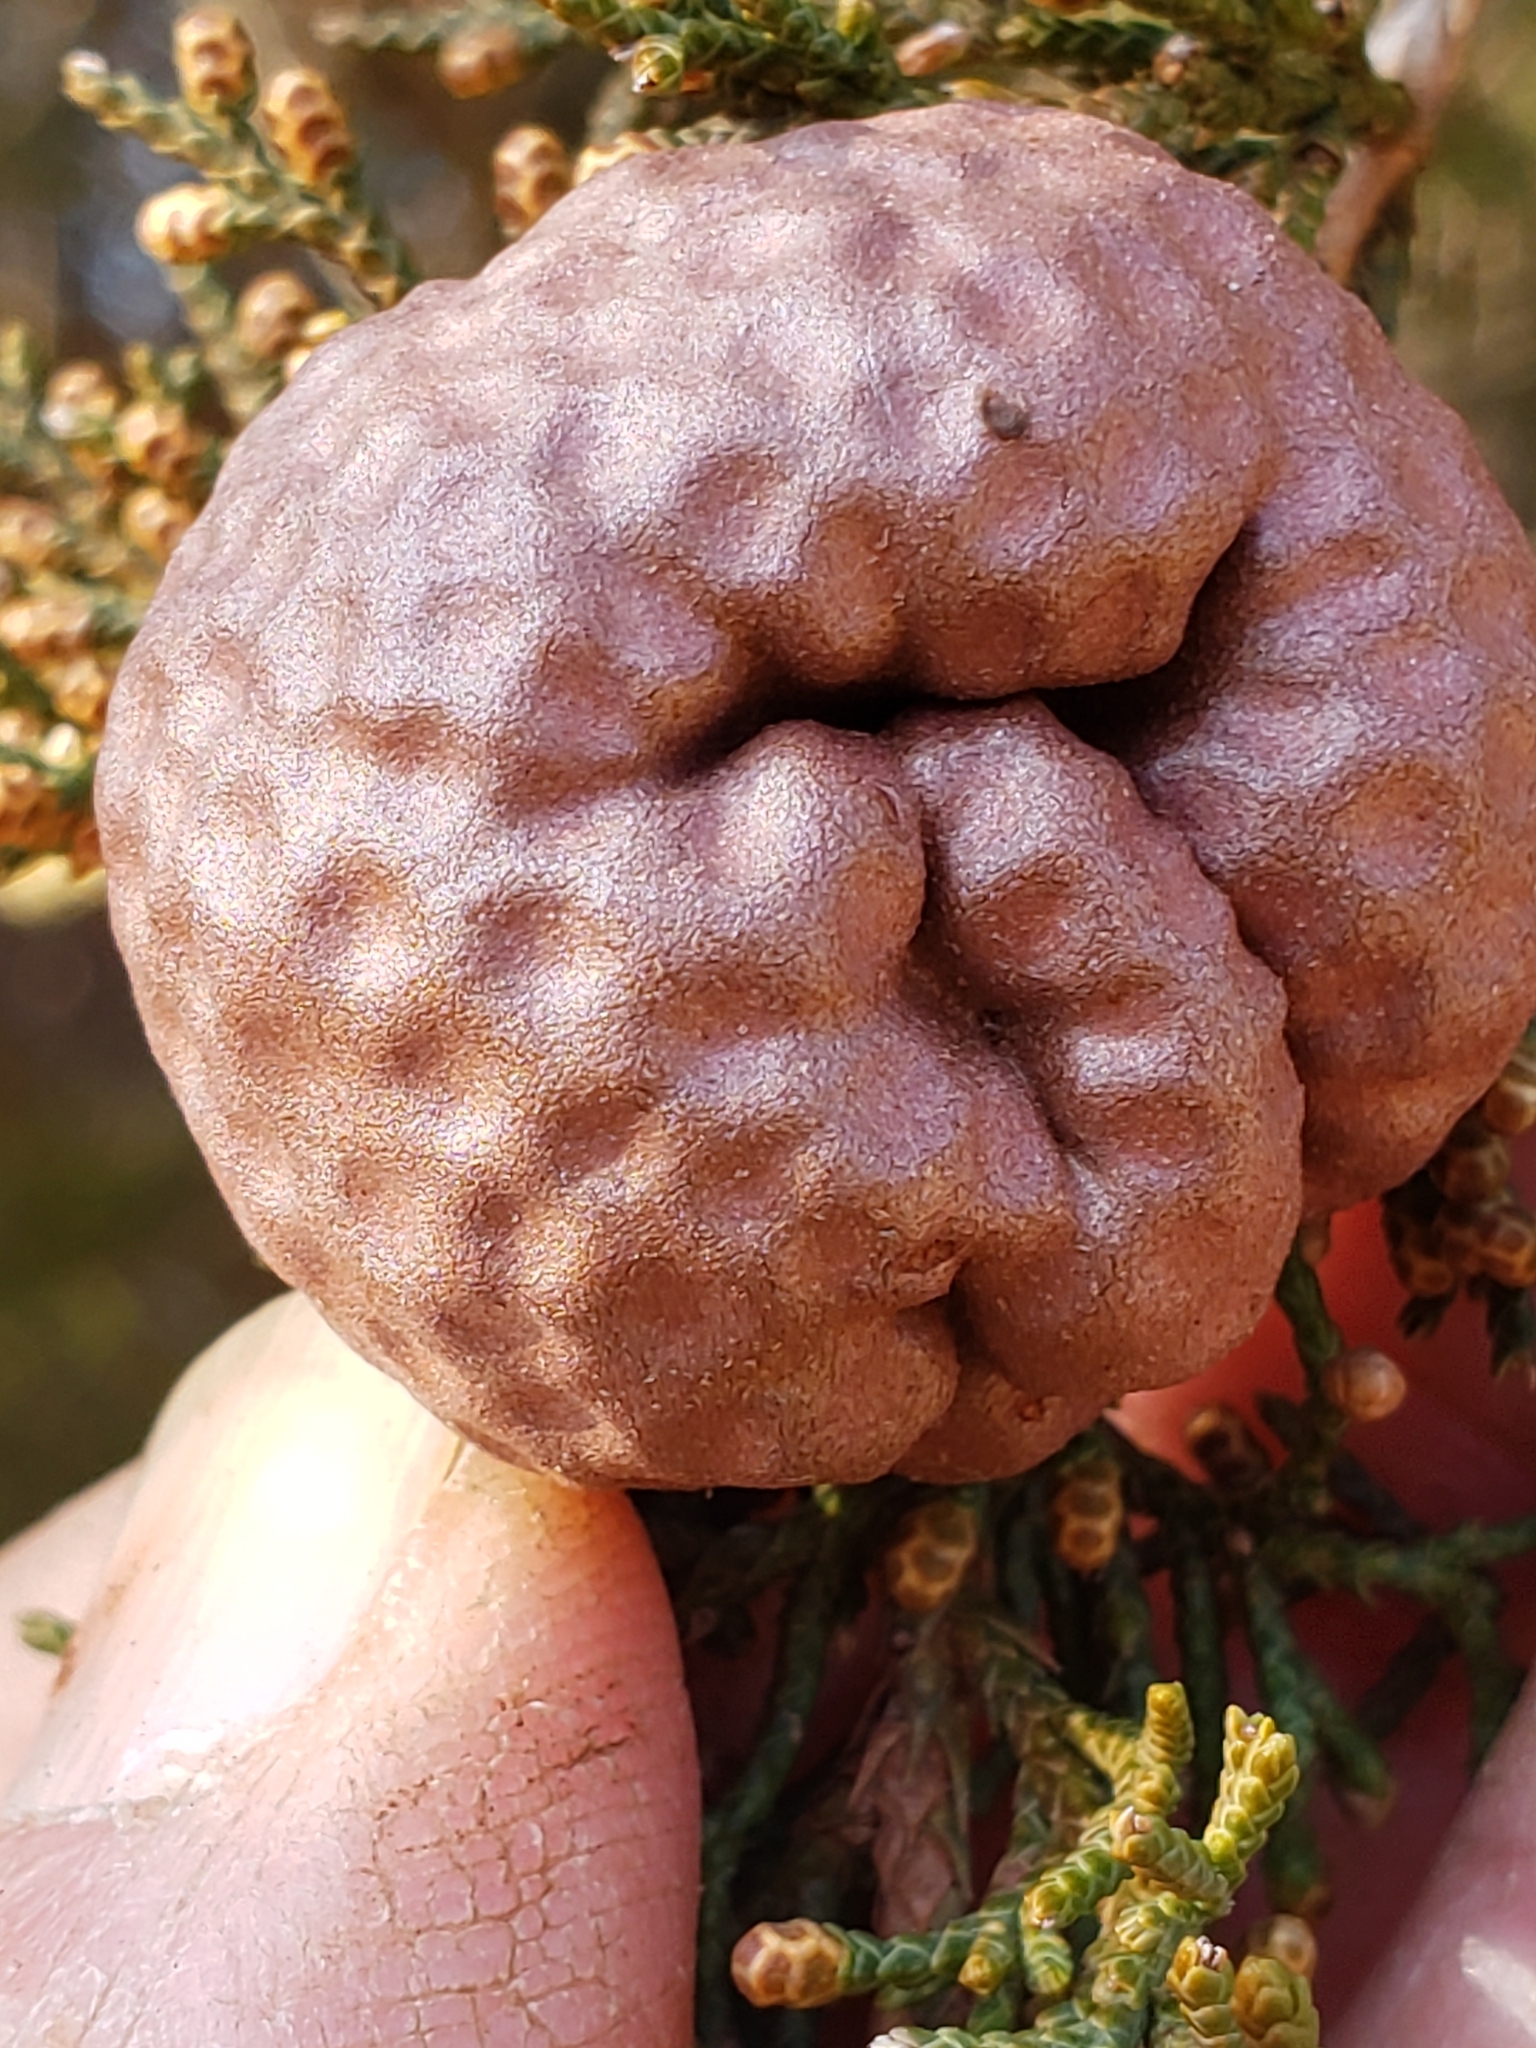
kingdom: Fungi
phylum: Basidiomycota
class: Pucciniomycetes
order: Pucciniales
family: Gymnosporangiaceae
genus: Gymnosporangium
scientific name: Gymnosporangium juniperi-virginianae
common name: Juniper-apple rust
